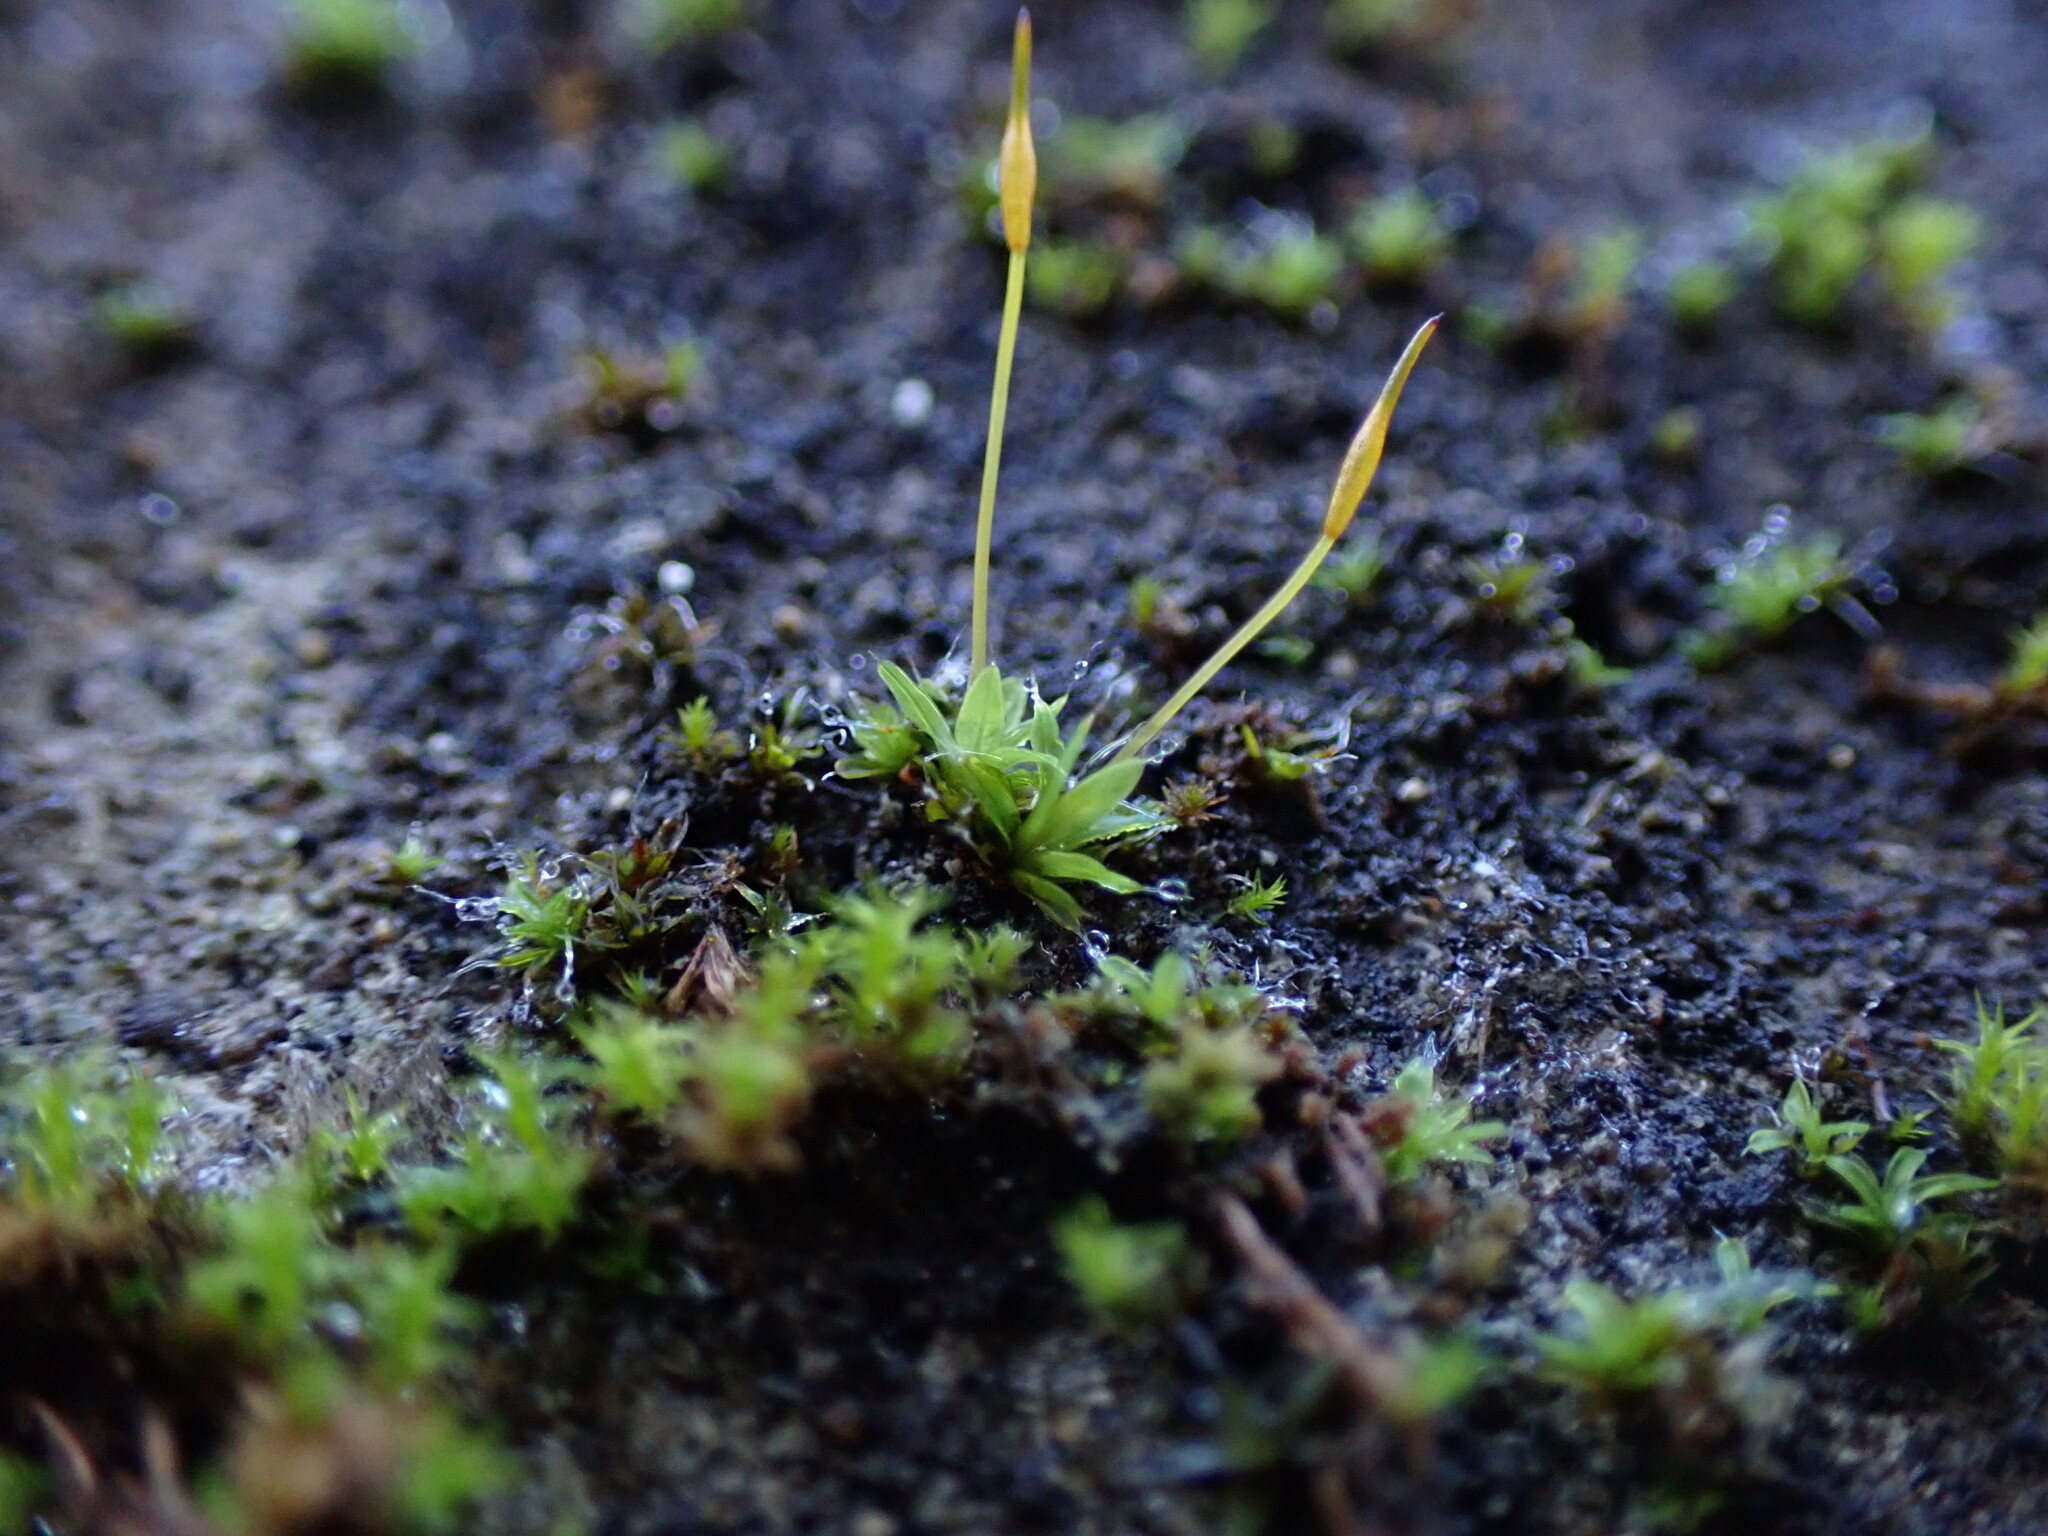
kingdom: Plantae
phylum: Bryophyta
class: Bryopsida
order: Pottiales
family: Pottiaceae
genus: Tortula
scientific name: Tortula muralis
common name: Wall screw-moss
